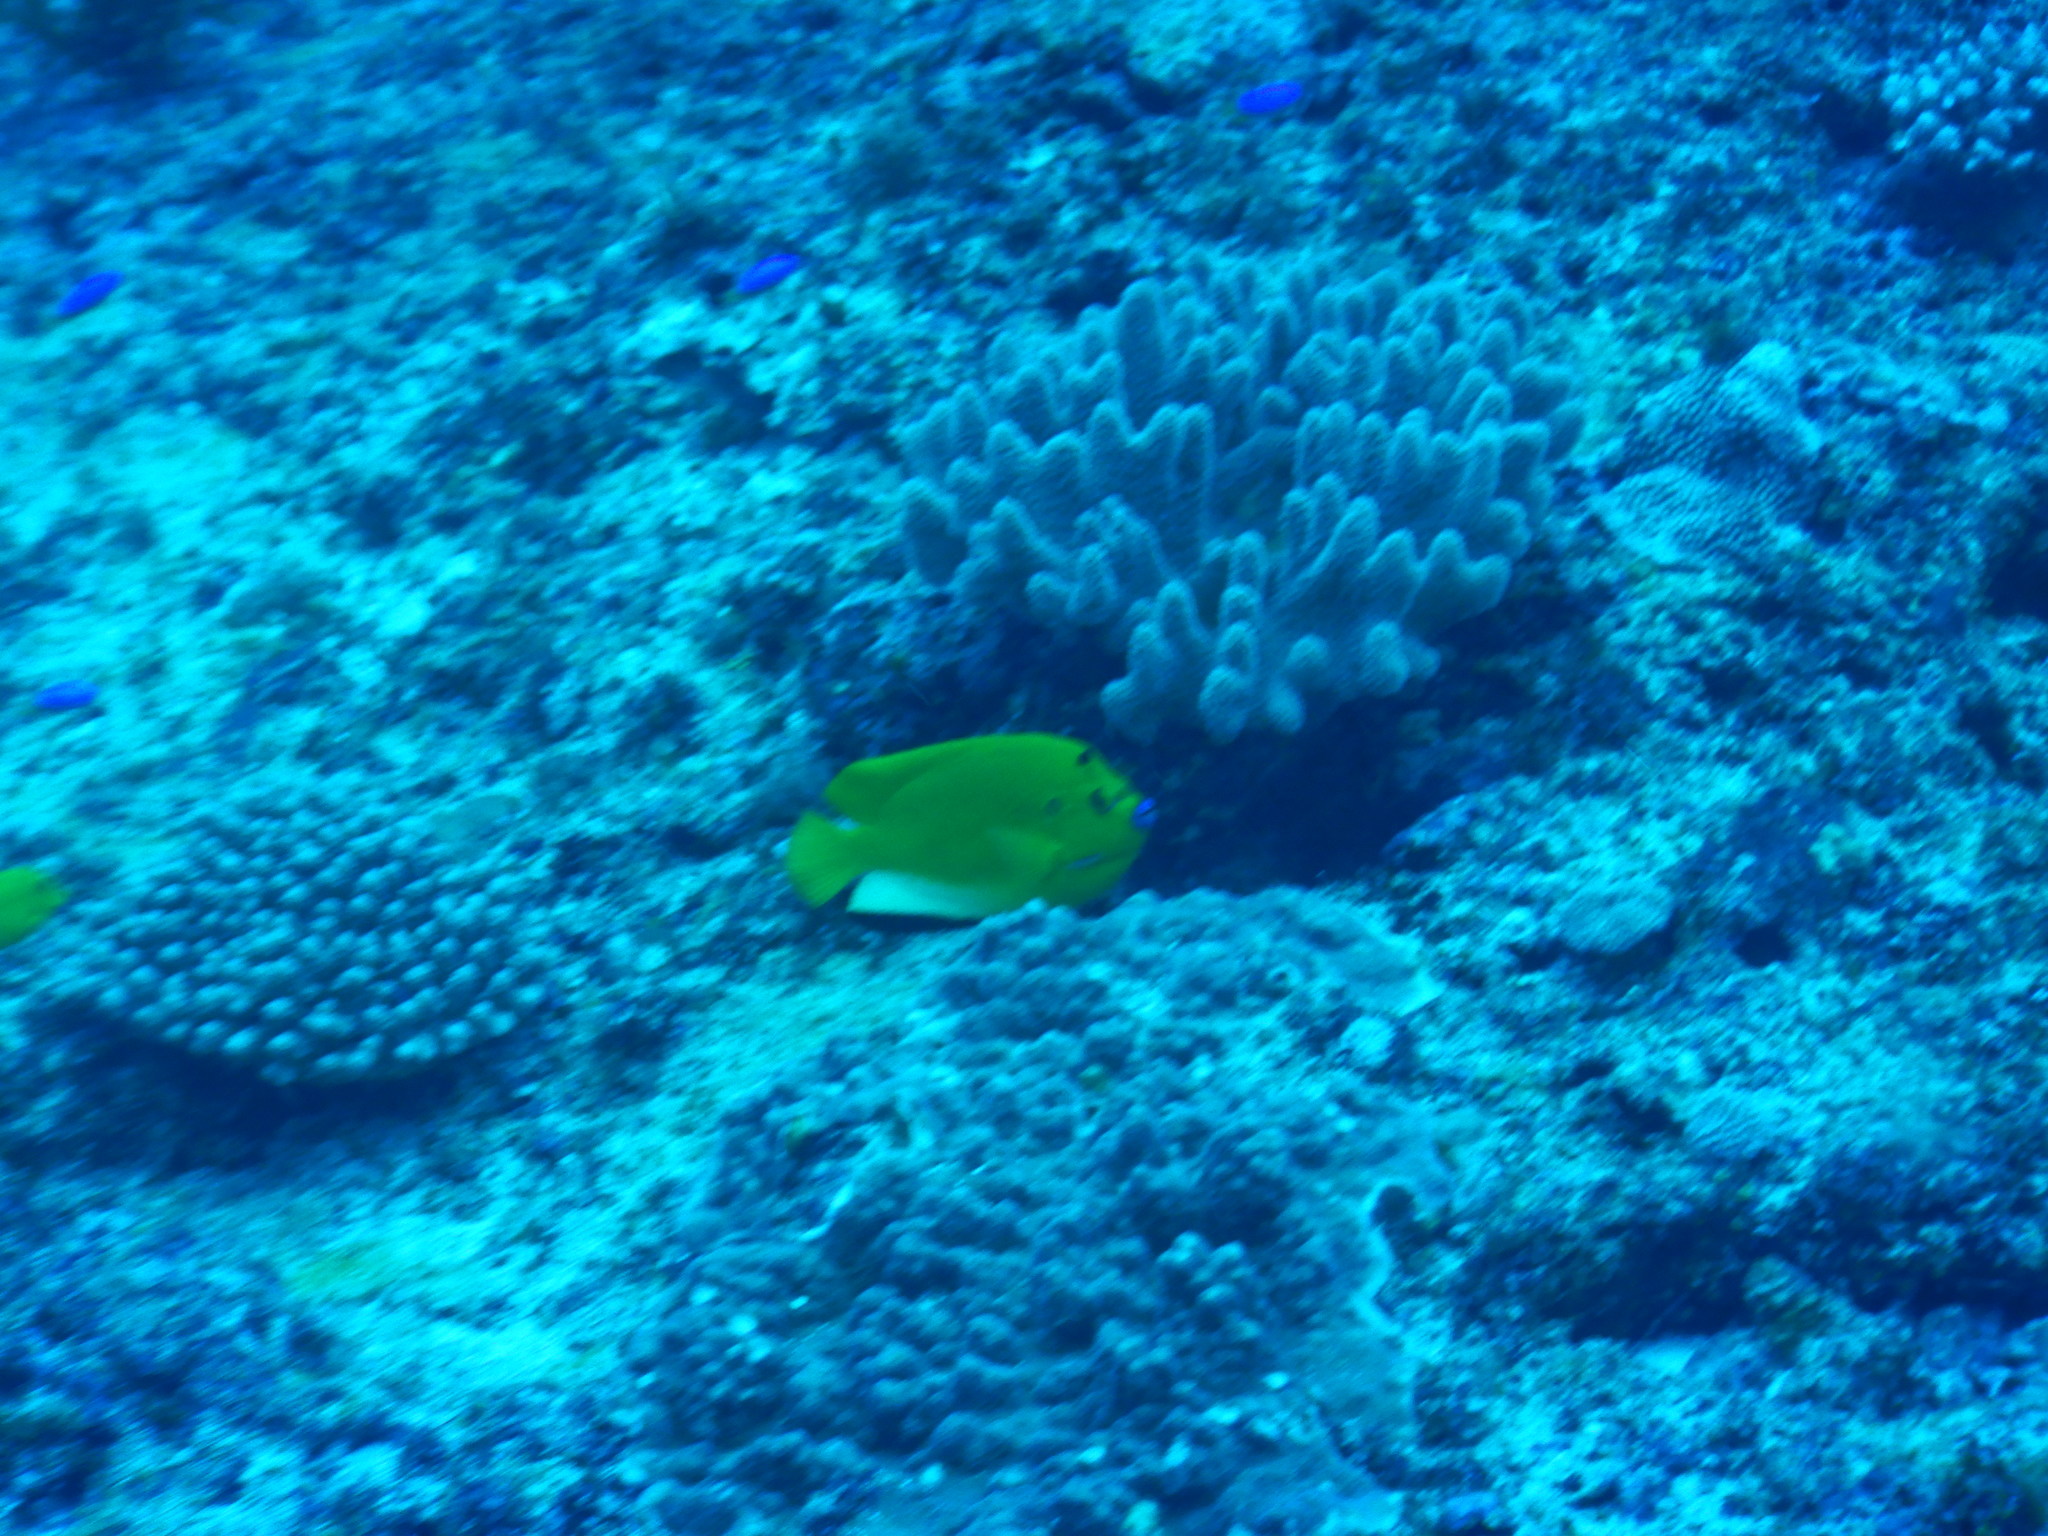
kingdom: Animalia
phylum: Chordata
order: Perciformes
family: Pomacanthidae
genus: Apolemichthys
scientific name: Apolemichthys trimaculatus
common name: Threespot angelfish
